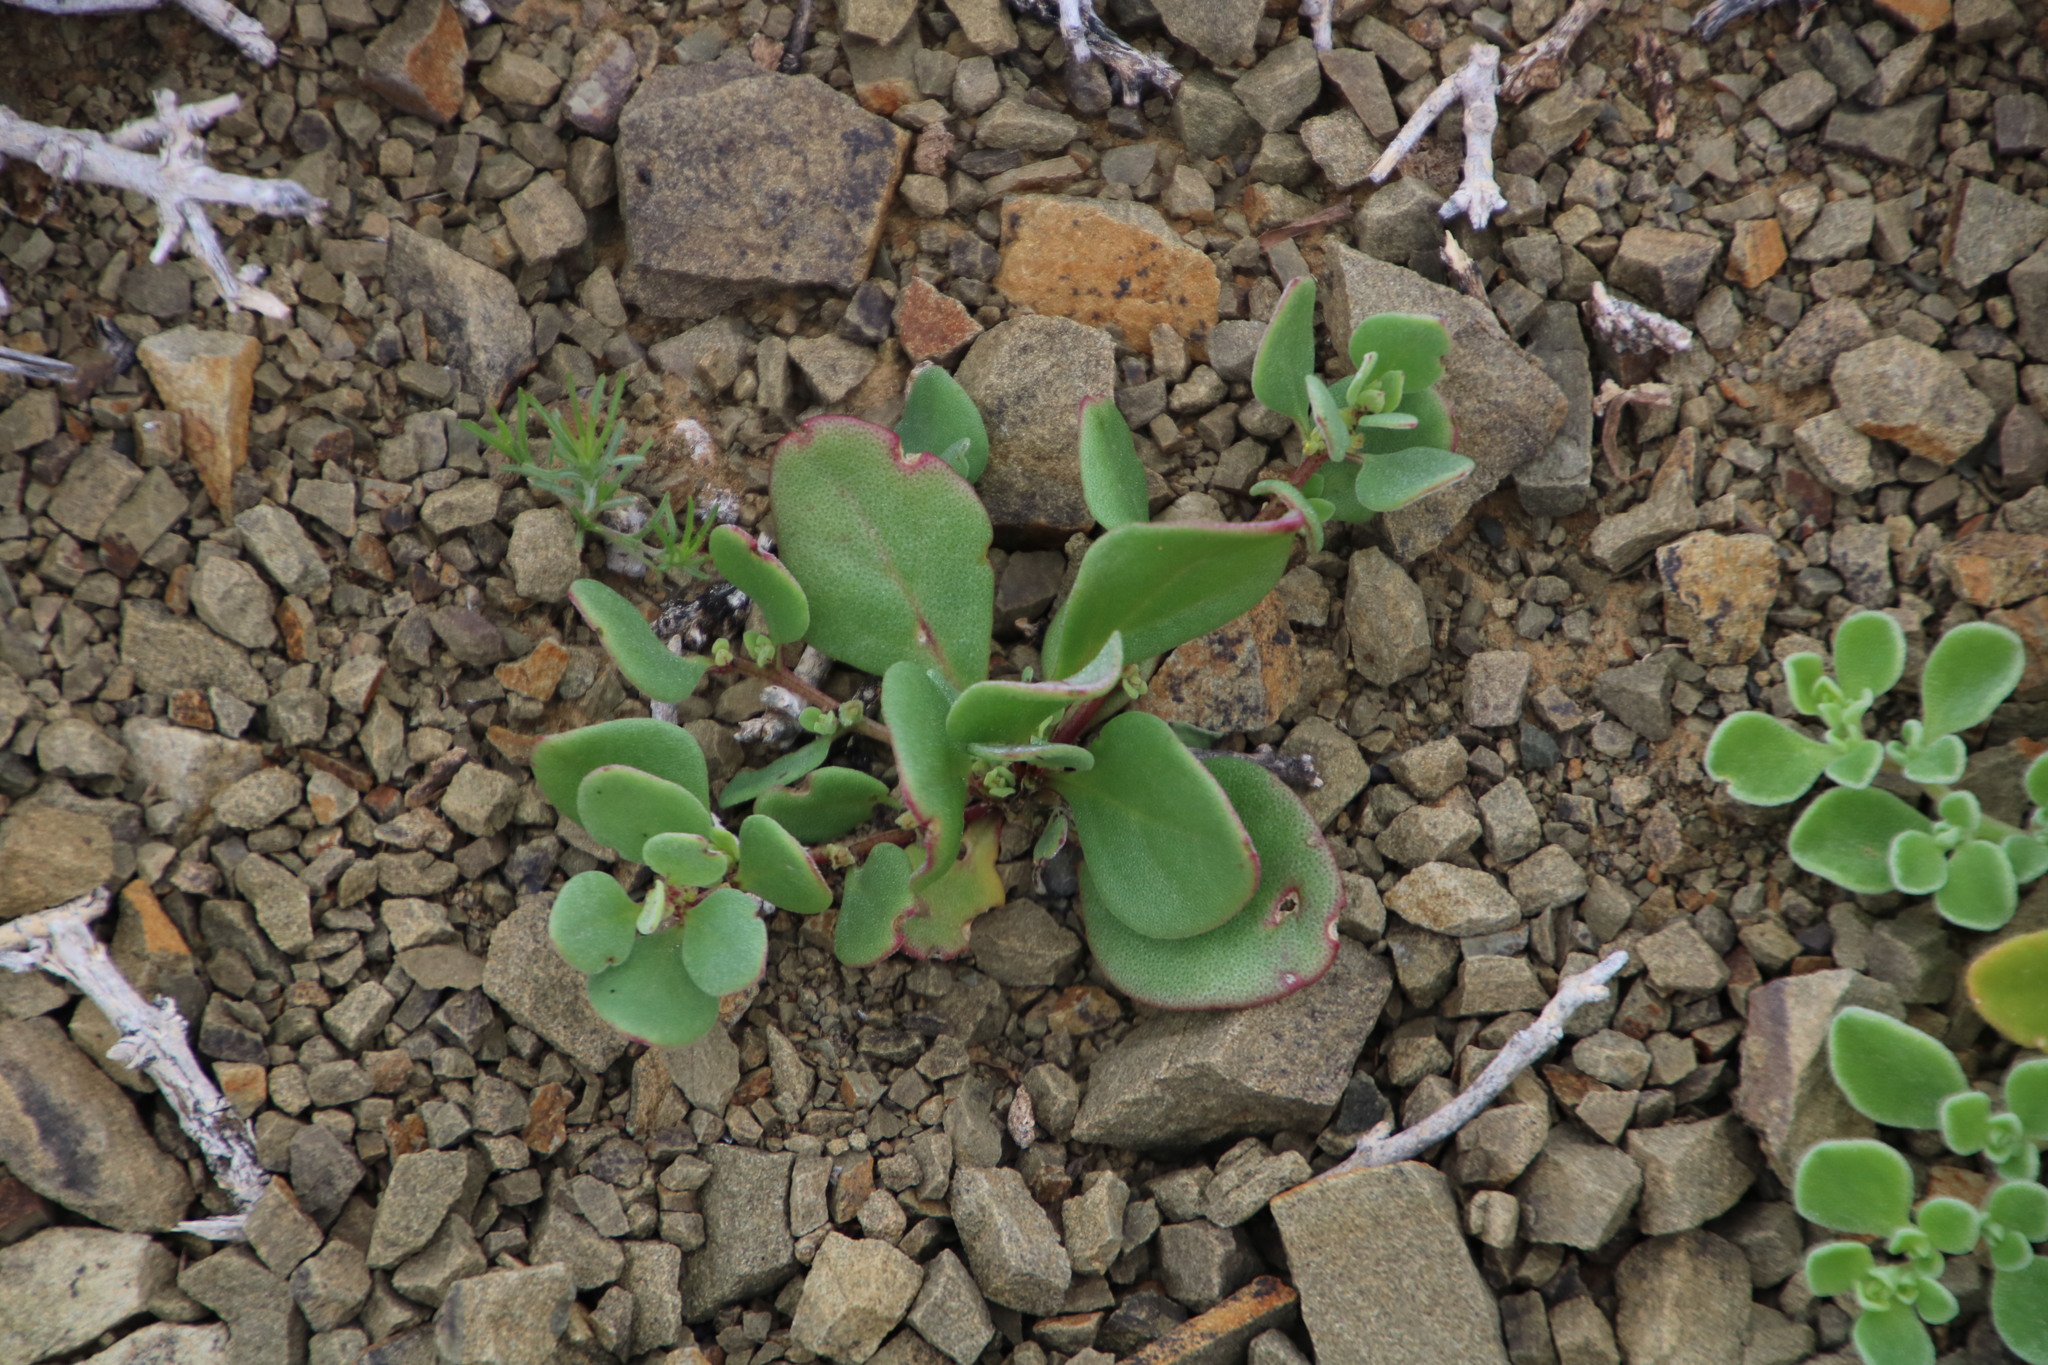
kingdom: Plantae
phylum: Tracheophyta
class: Magnoliopsida
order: Caryophyllales
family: Aizoaceae
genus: Tetragonia
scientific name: Tetragonia echinata
